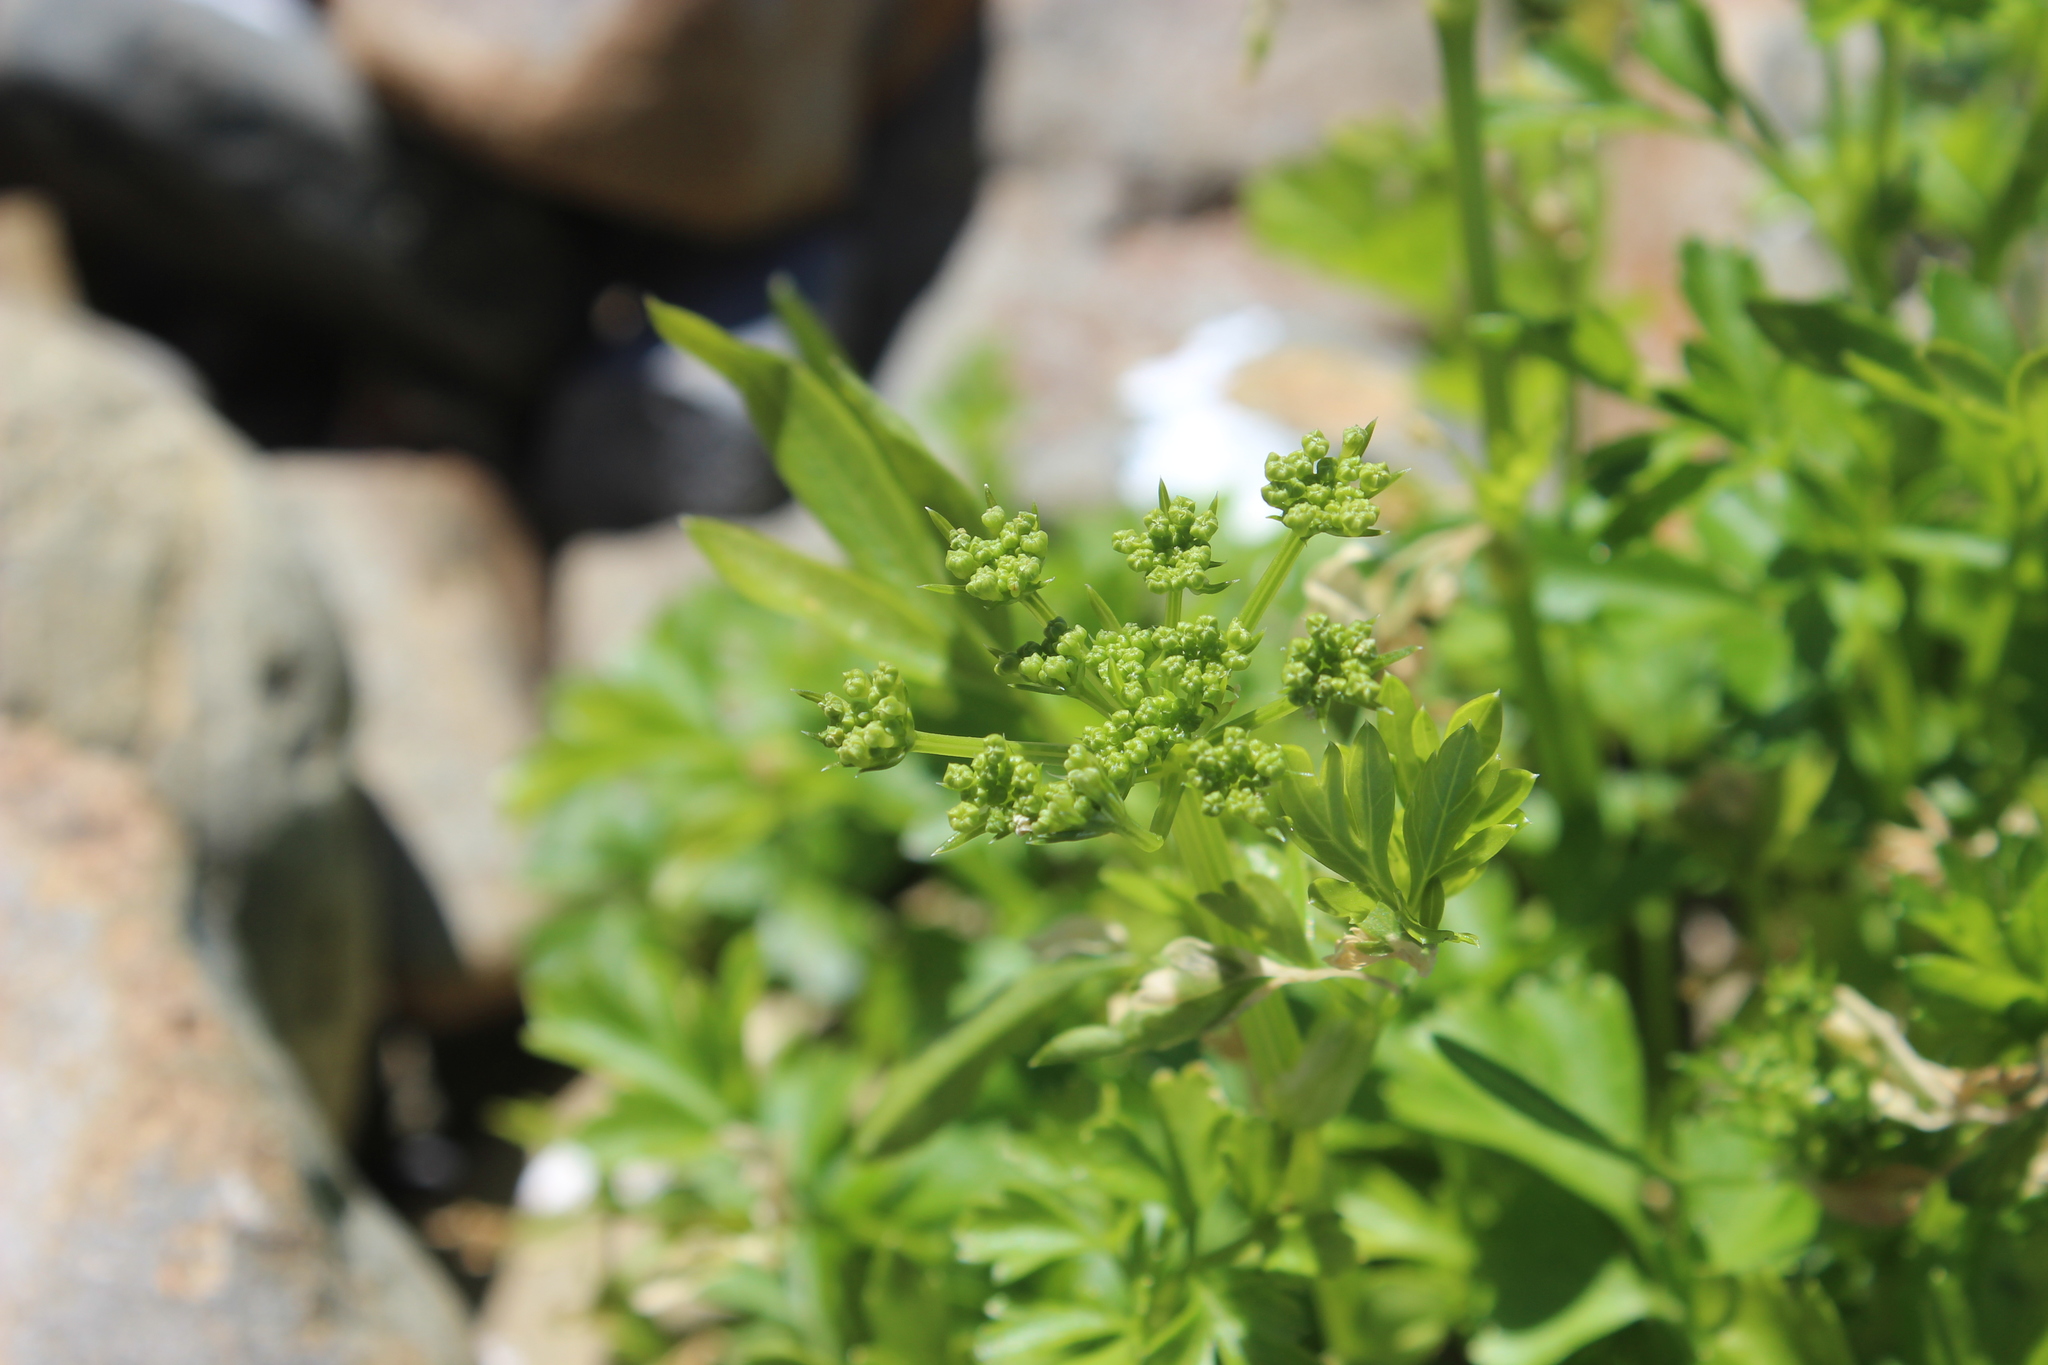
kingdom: Plantae
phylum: Tracheophyta
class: Magnoliopsida
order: Apiales
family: Apiaceae
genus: Apium
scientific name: Apium prostratum
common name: Prostrate marshwort
